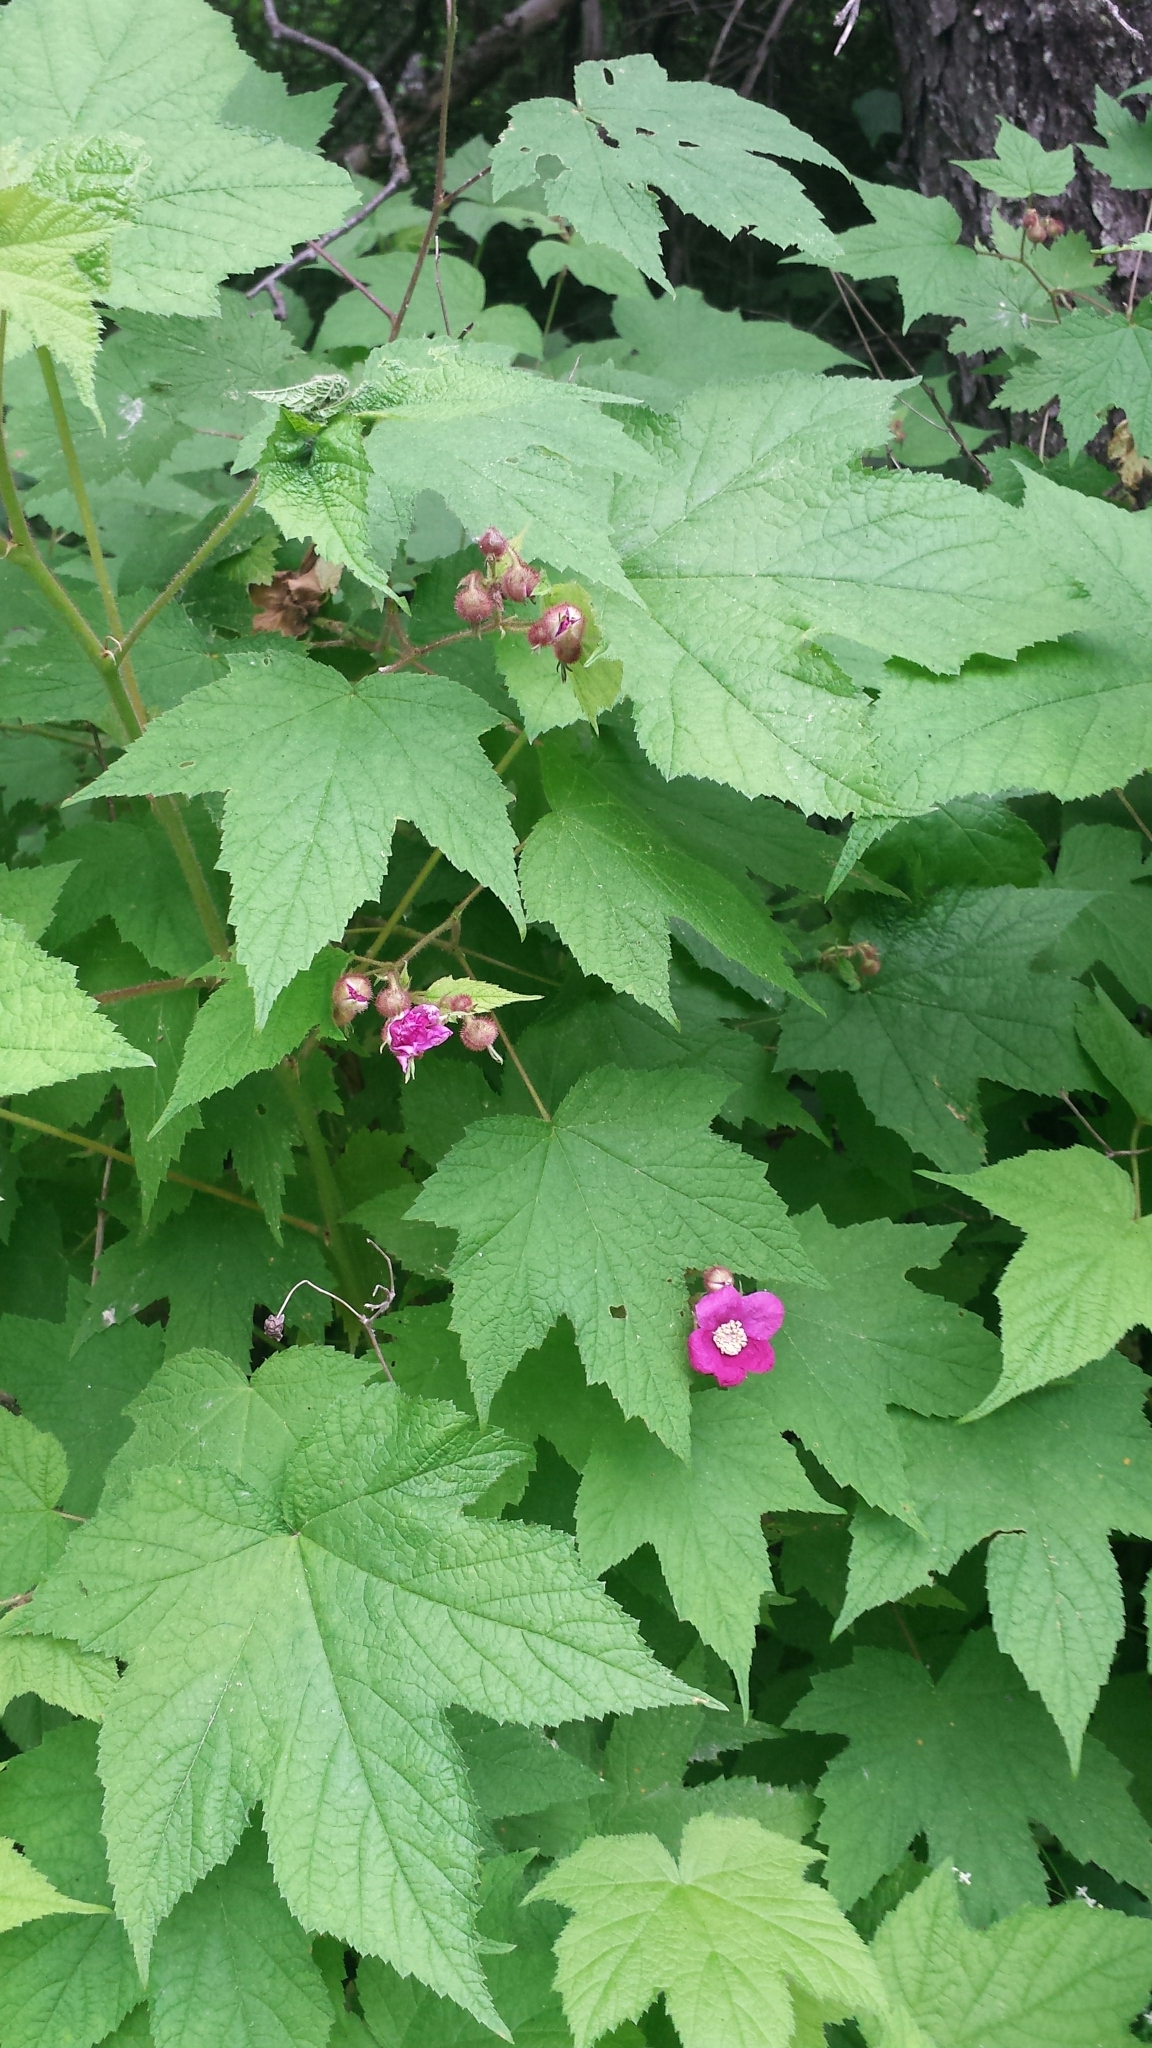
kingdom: Plantae
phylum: Tracheophyta
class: Magnoliopsida
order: Rosales
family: Rosaceae
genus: Rubus
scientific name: Rubus odoratus
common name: Purple-flowered raspberry
